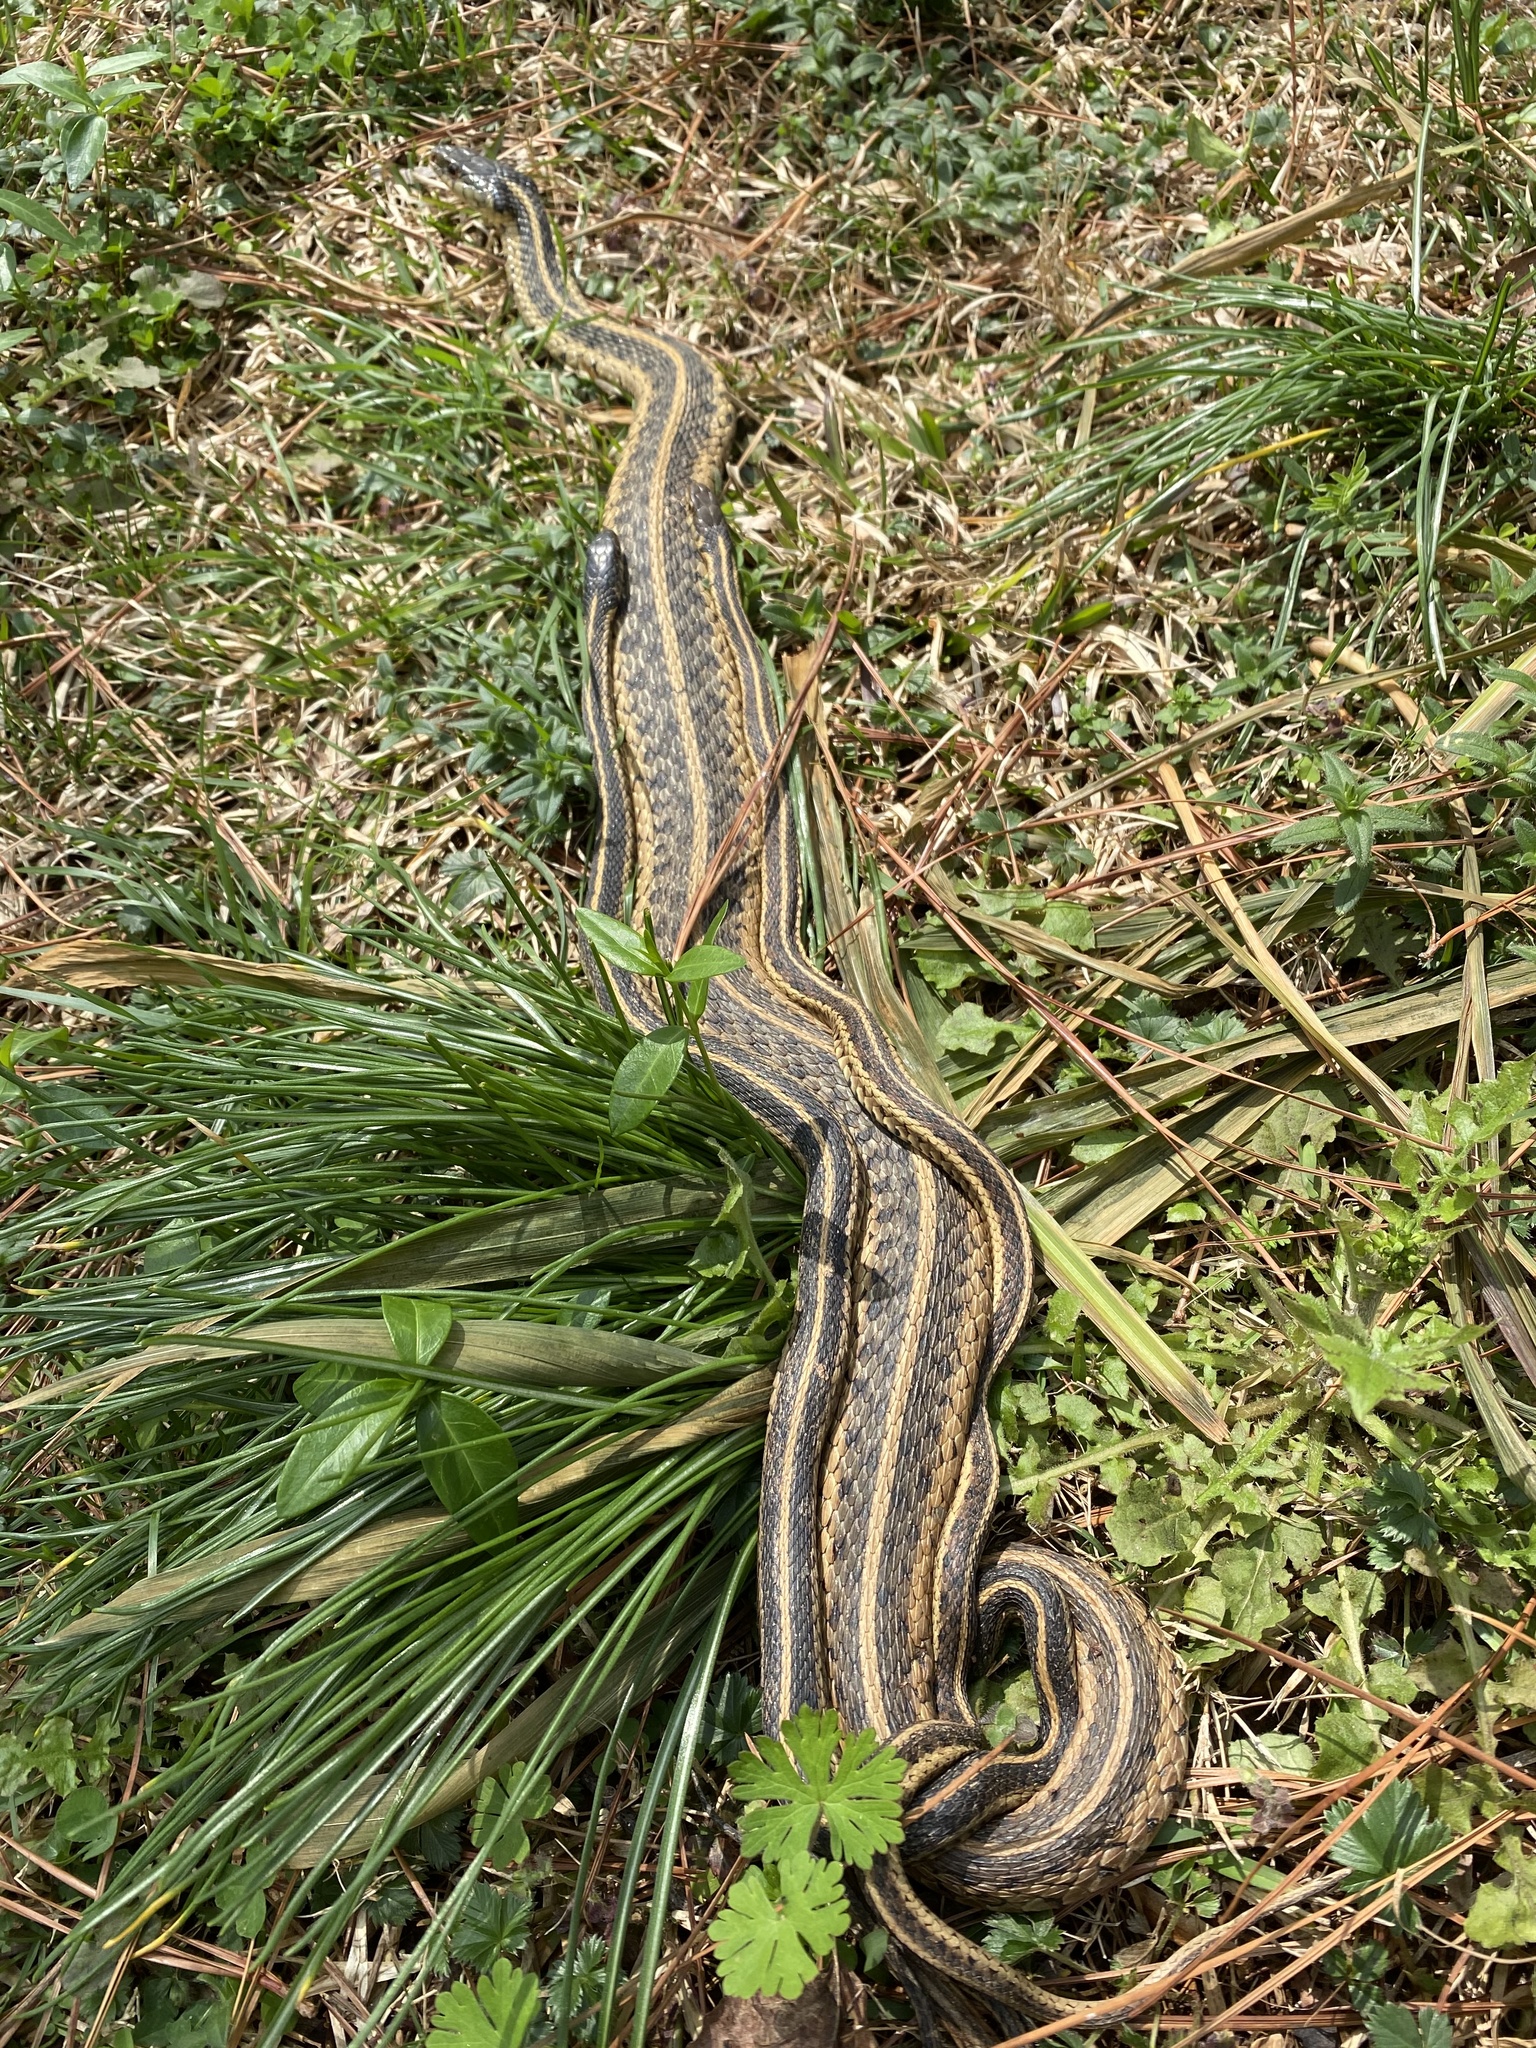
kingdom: Animalia
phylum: Chordata
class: Squamata
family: Colubridae
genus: Thamnophis
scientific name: Thamnophis sirtalis
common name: Common garter snake
